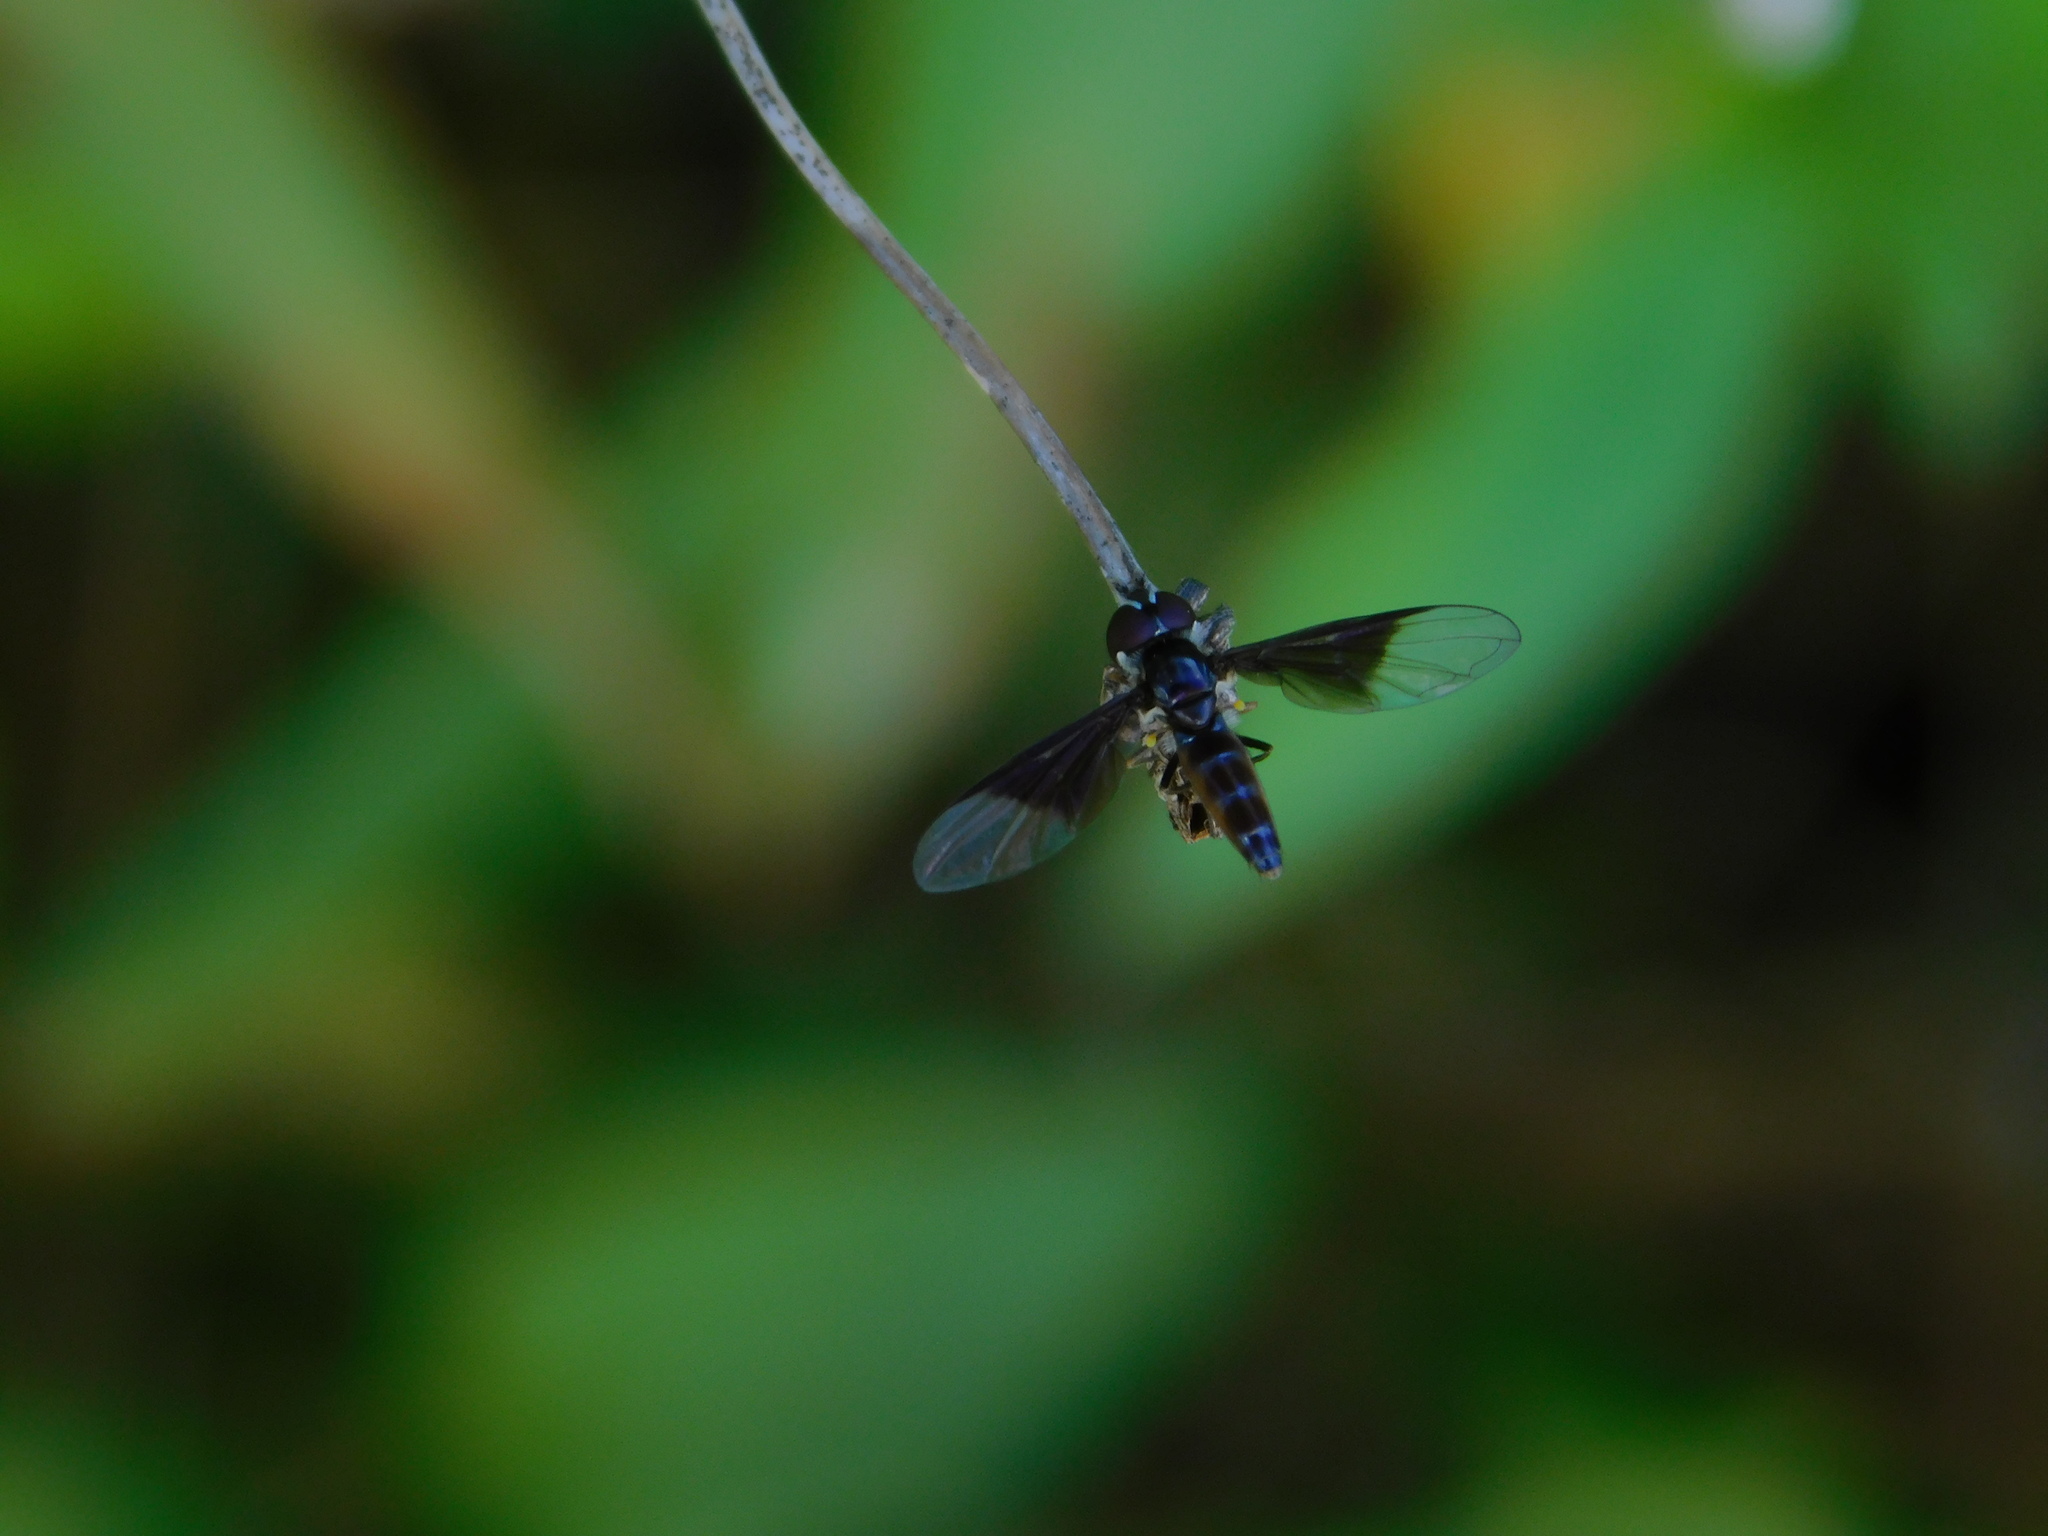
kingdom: Animalia
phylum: Arthropoda
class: Insecta
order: Diptera
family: Syrphidae
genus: Ocyptamus
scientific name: Ocyptamus dimidiatus
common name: Syrphid fly
